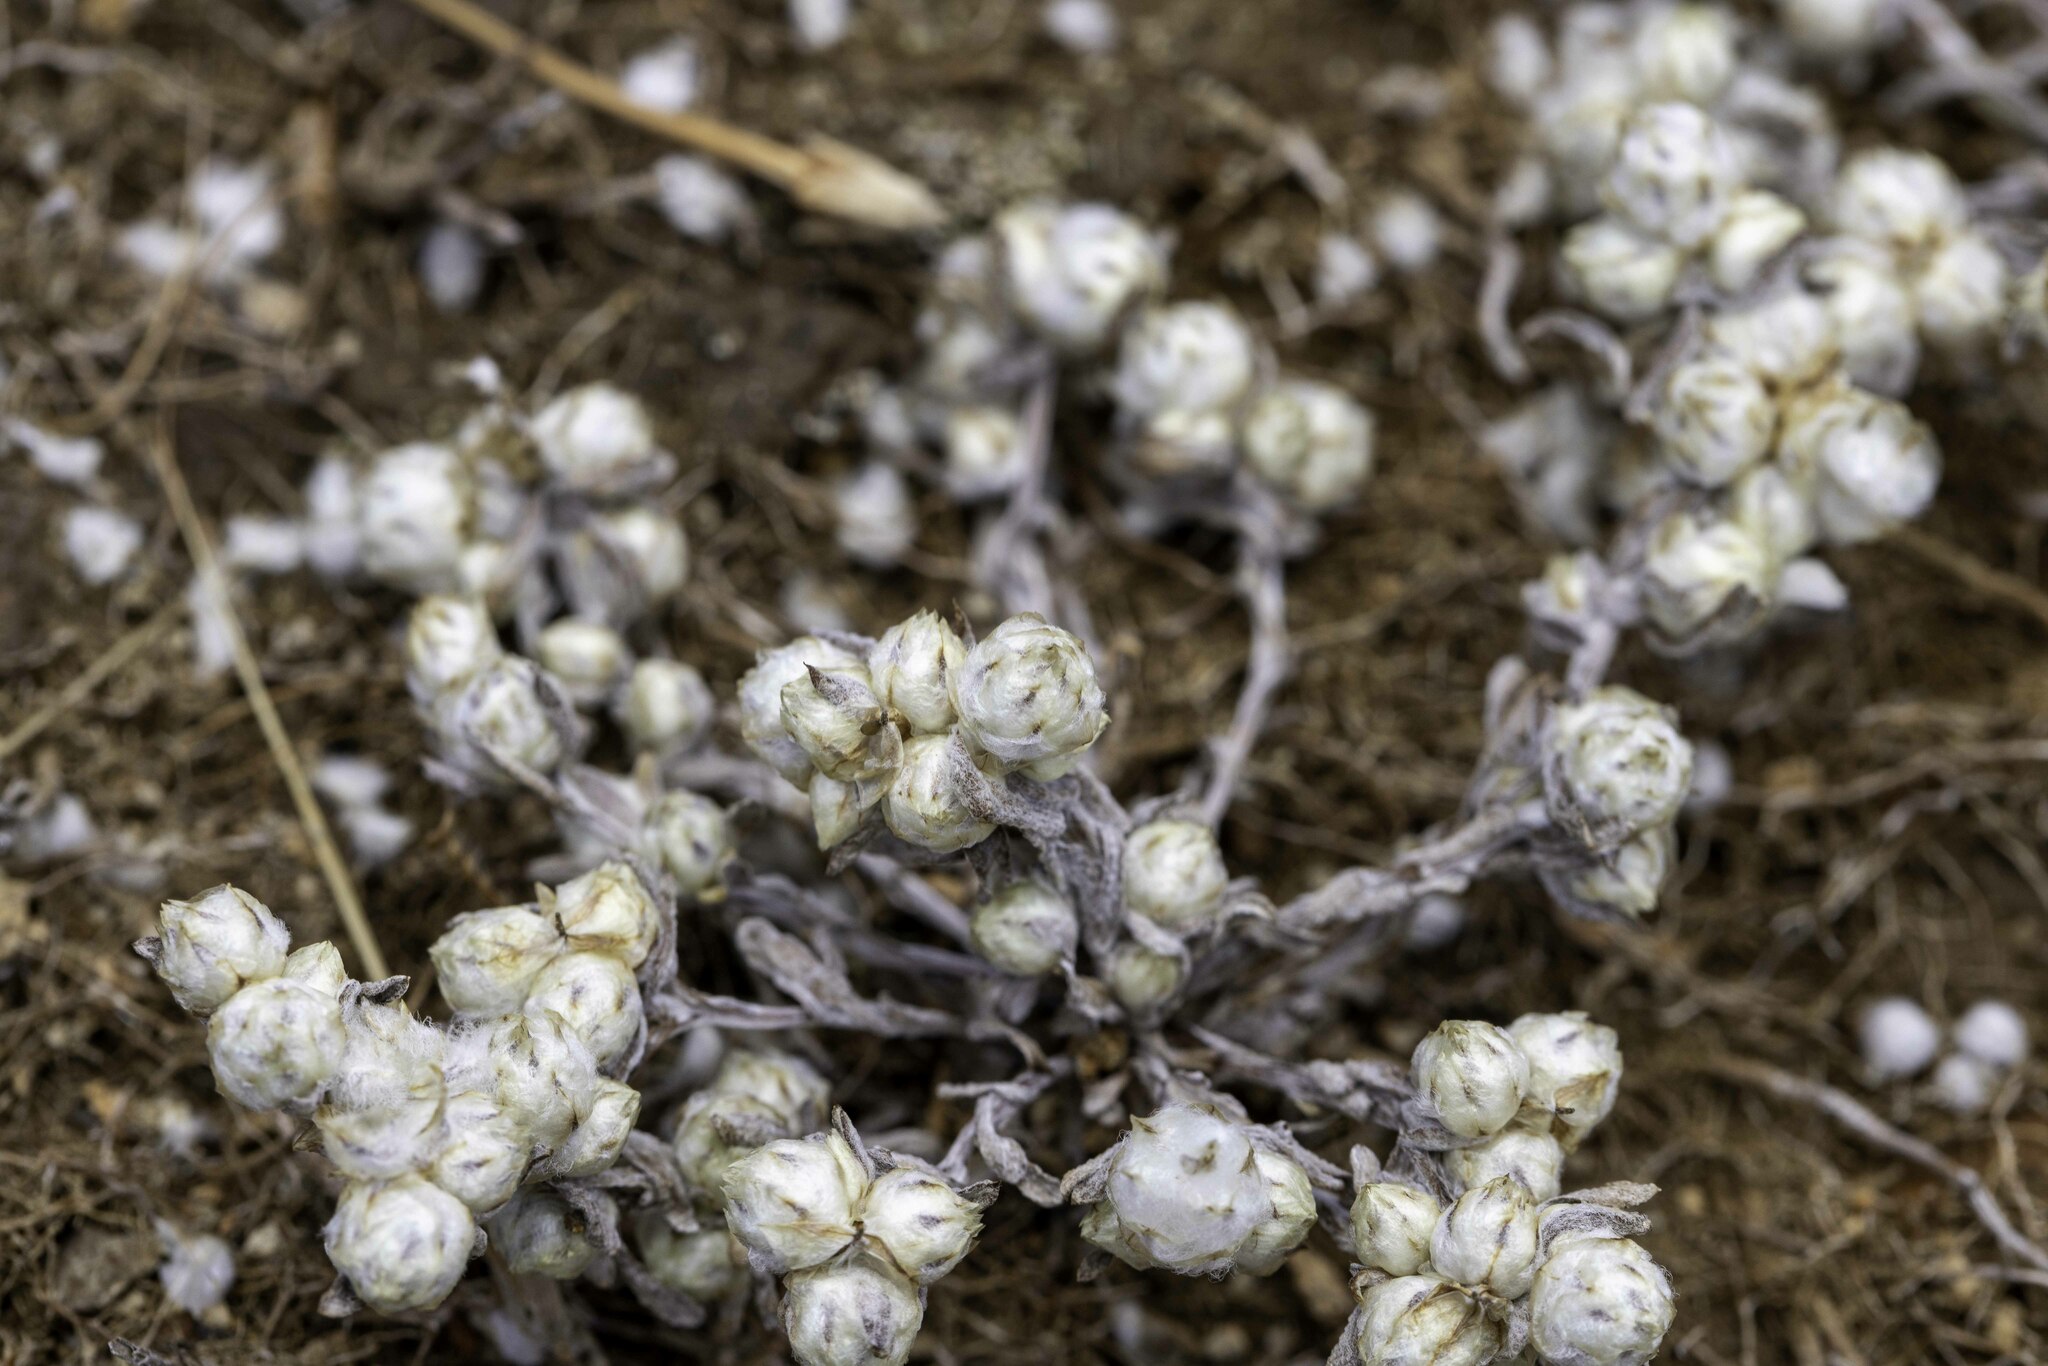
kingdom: Plantae
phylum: Tracheophyta
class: Magnoliopsida
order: Asterales
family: Asteraceae
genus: Stylocline
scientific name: Stylocline gnaphaloides
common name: Everlasting nest-straw
